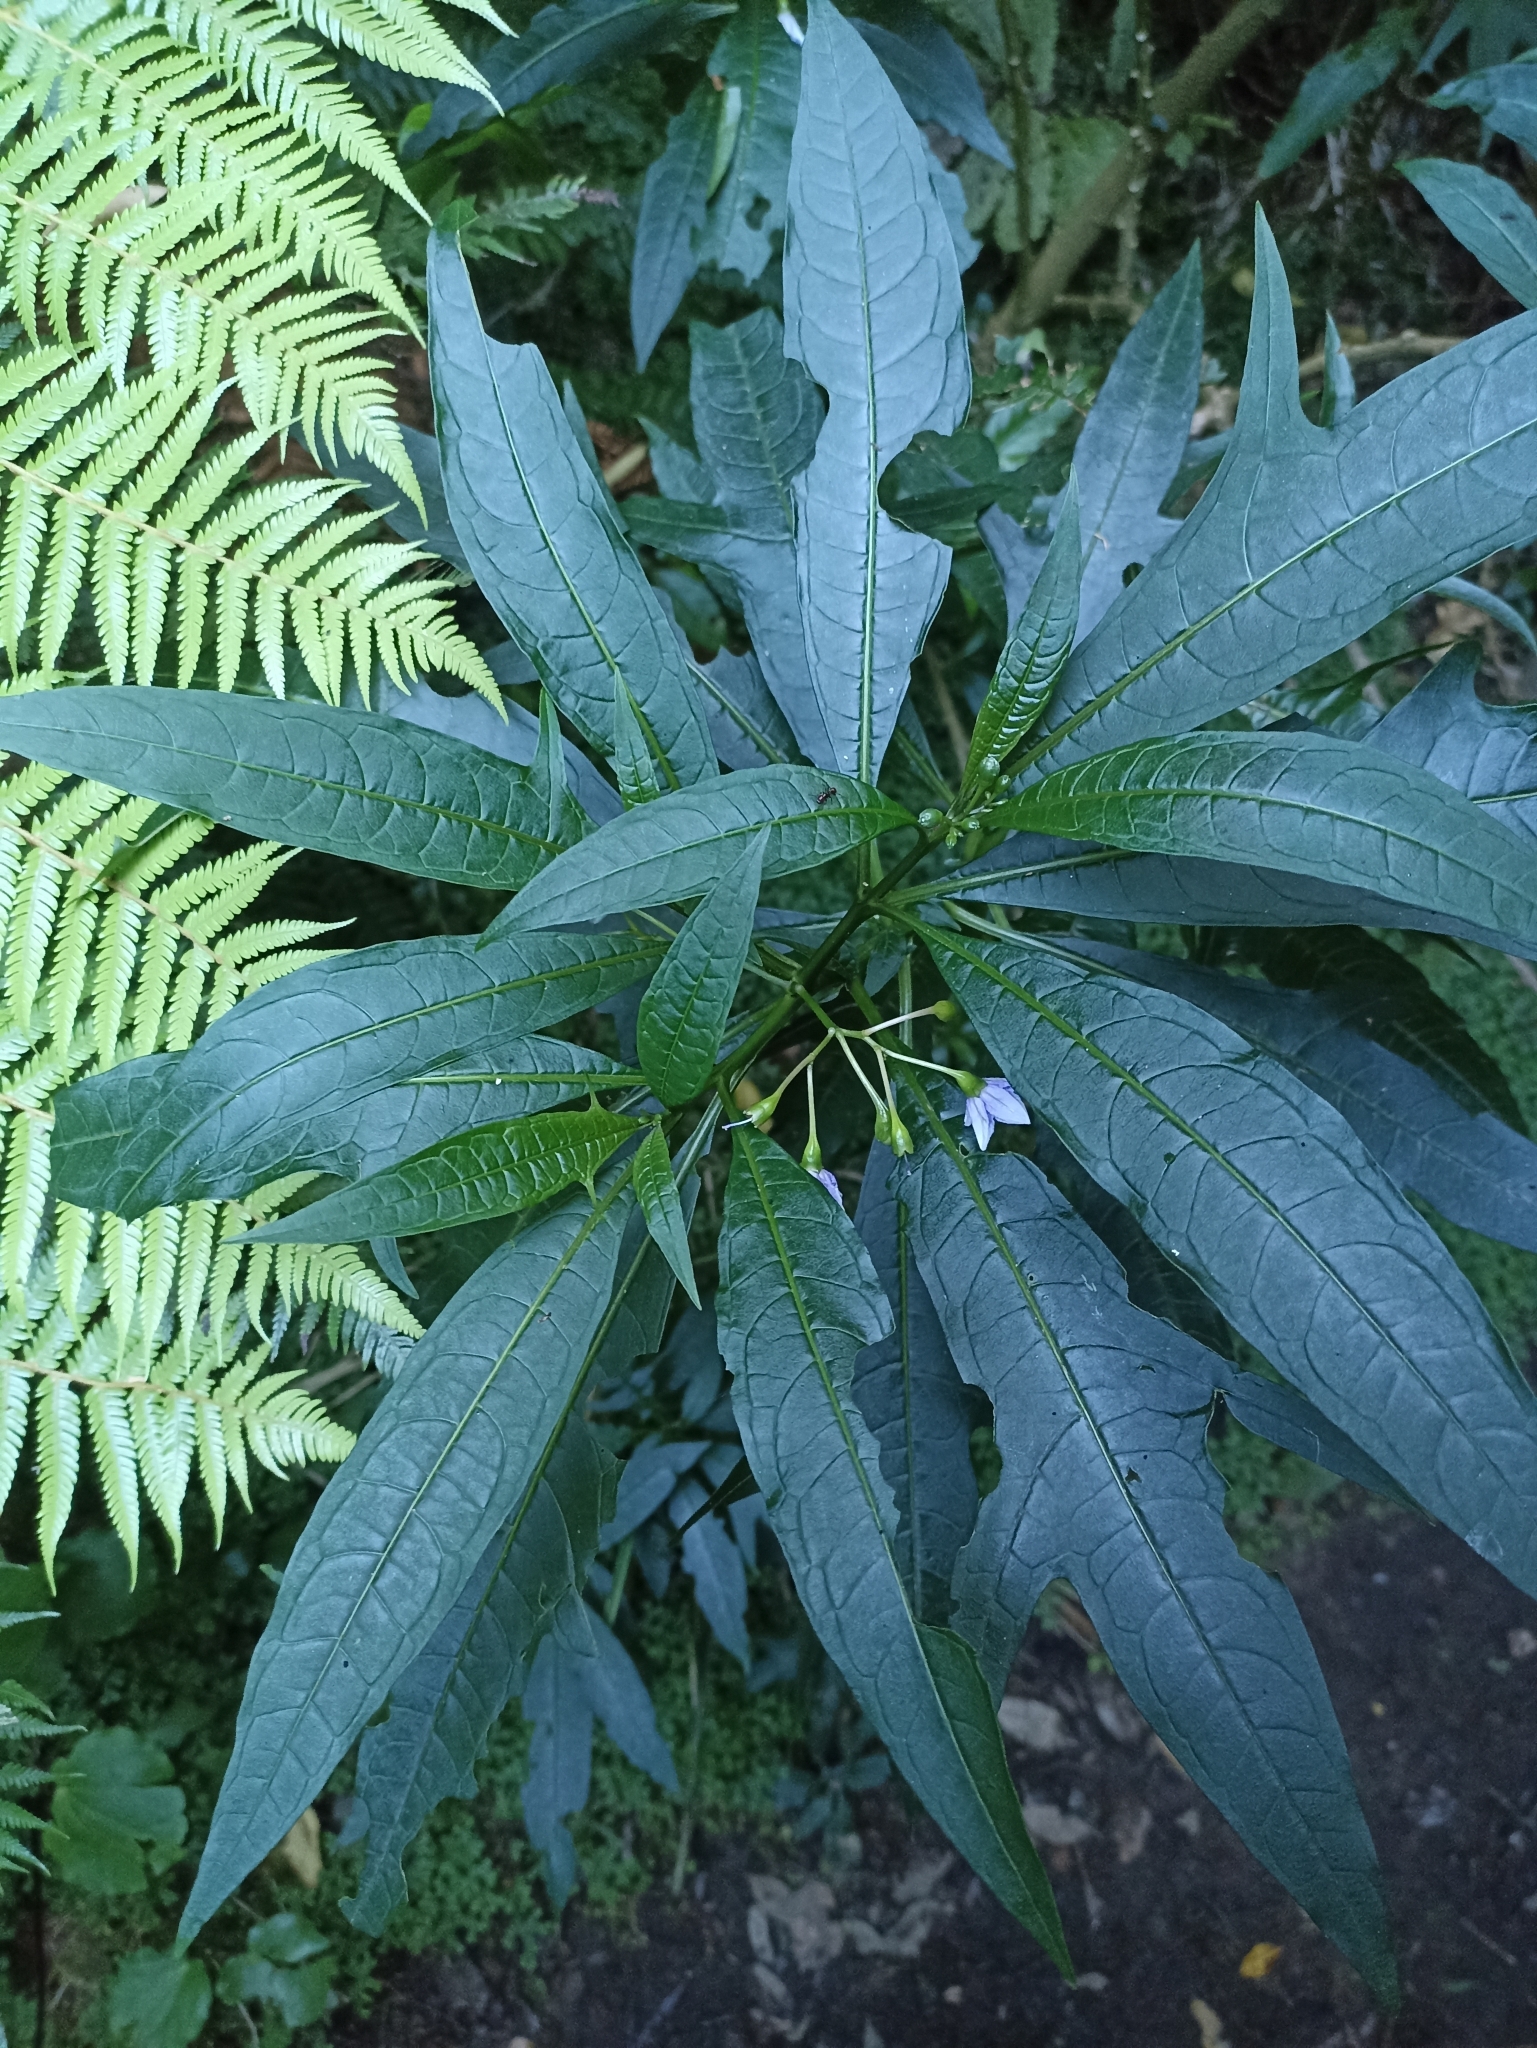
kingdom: Plantae
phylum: Tracheophyta
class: Magnoliopsida
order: Solanales
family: Solanaceae
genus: Solanum
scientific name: Solanum aviculare
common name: New zealand nightshade
